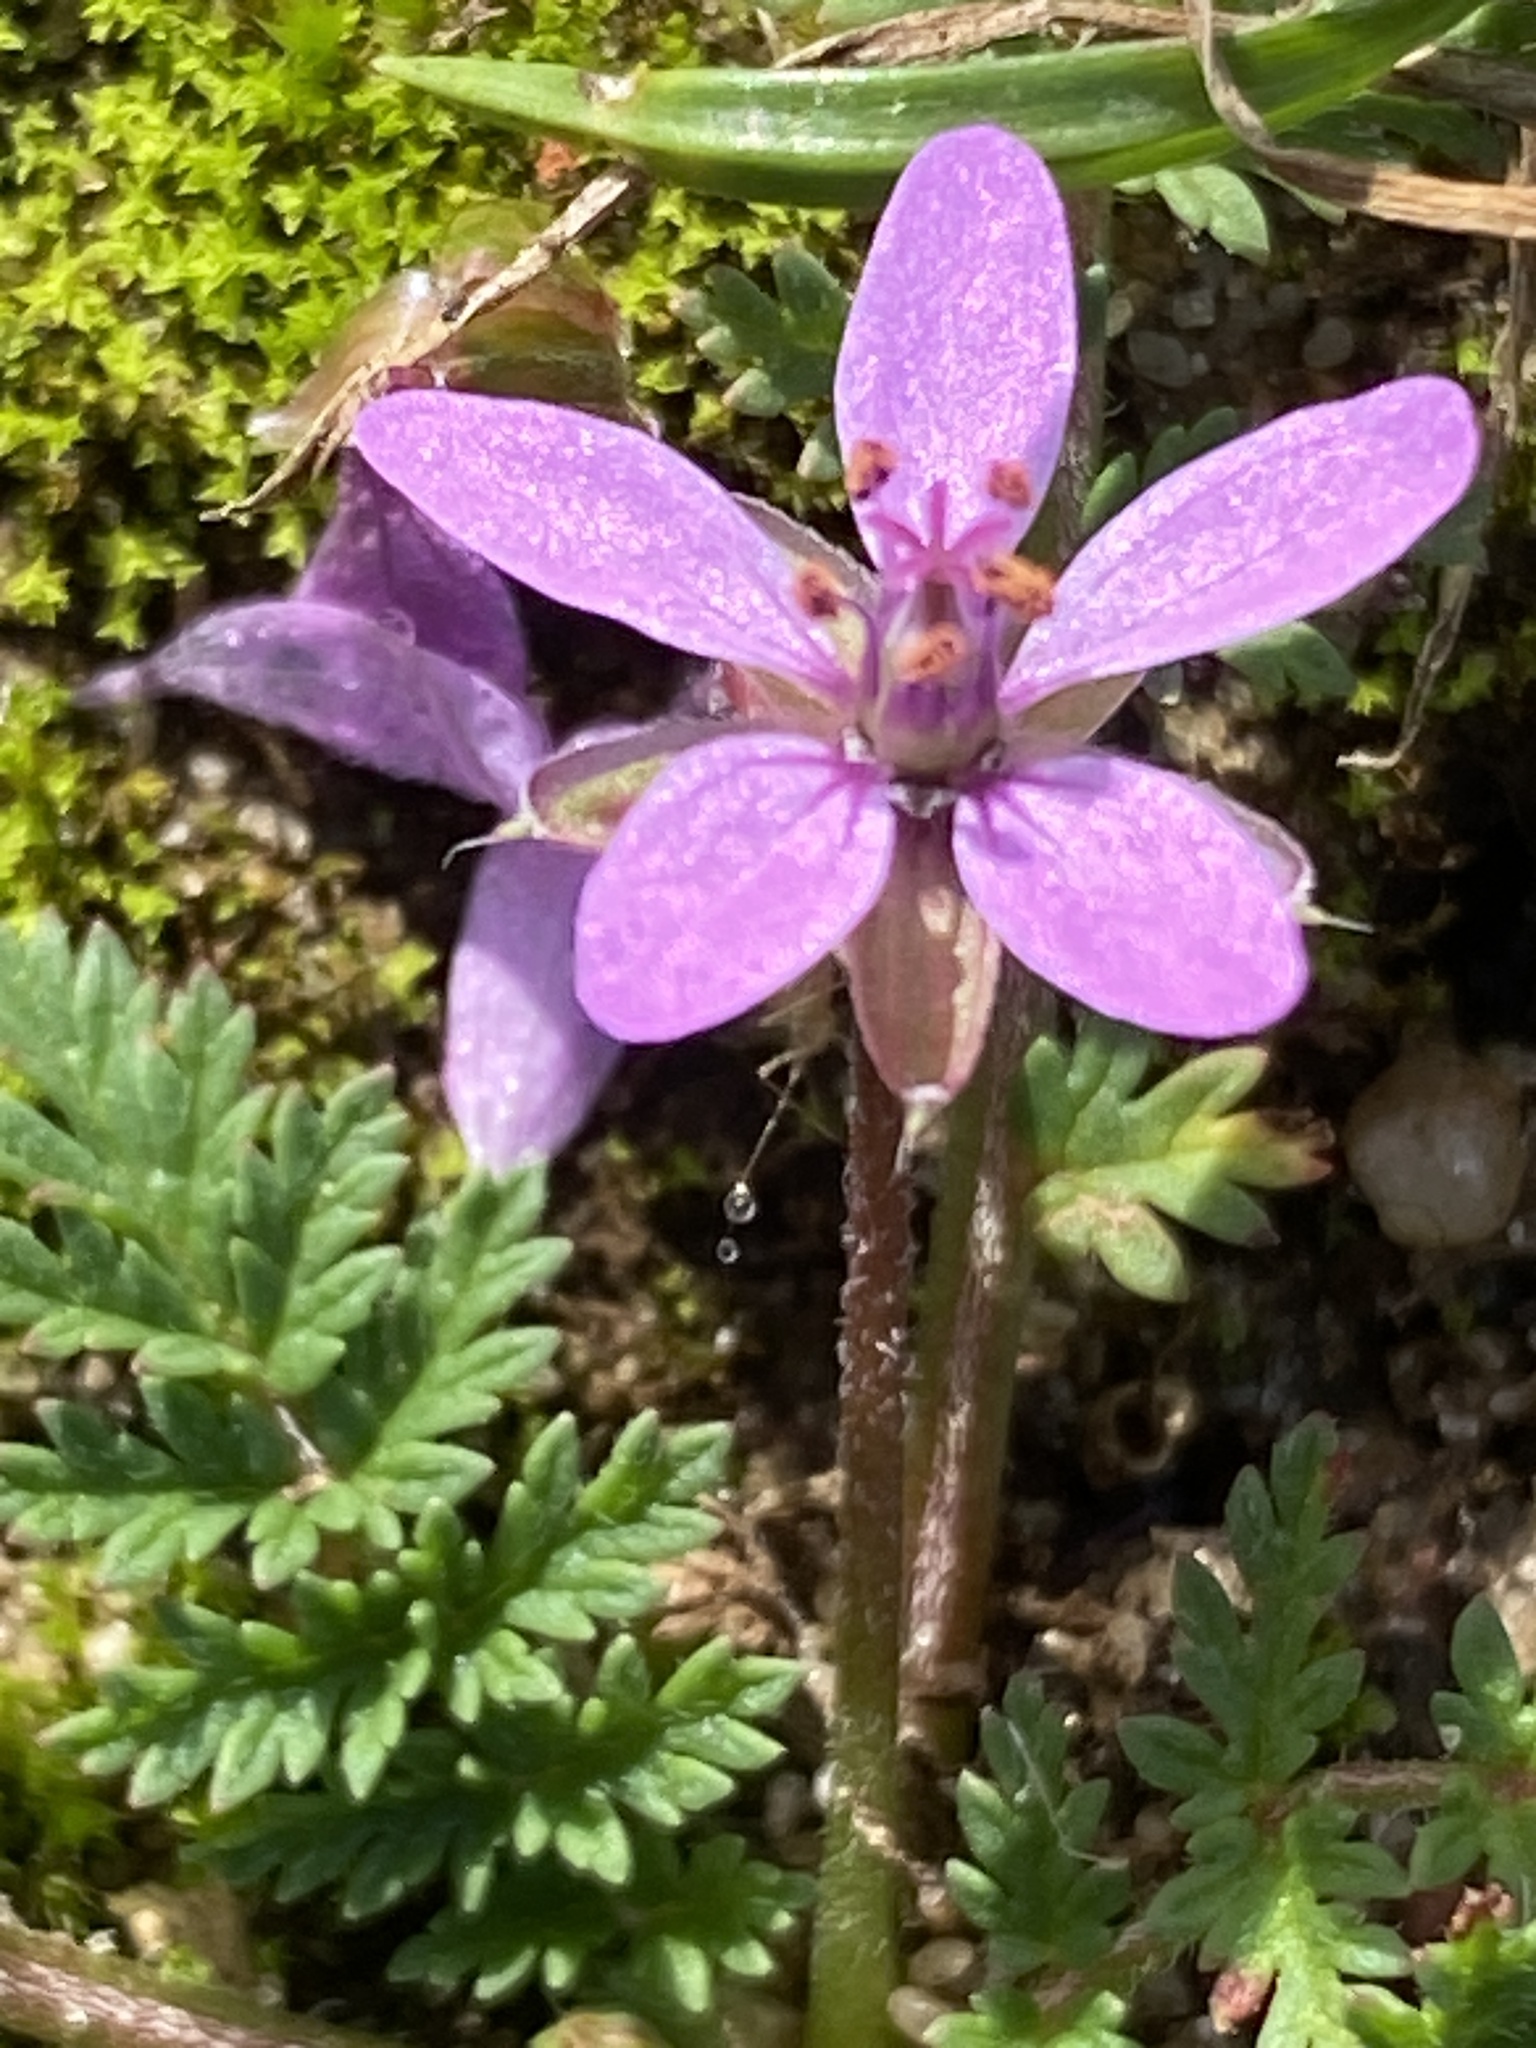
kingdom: Plantae
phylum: Tracheophyta
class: Magnoliopsida
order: Geraniales
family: Geraniaceae
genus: Erodium
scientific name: Erodium cicutarium
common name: Common stork's-bill
